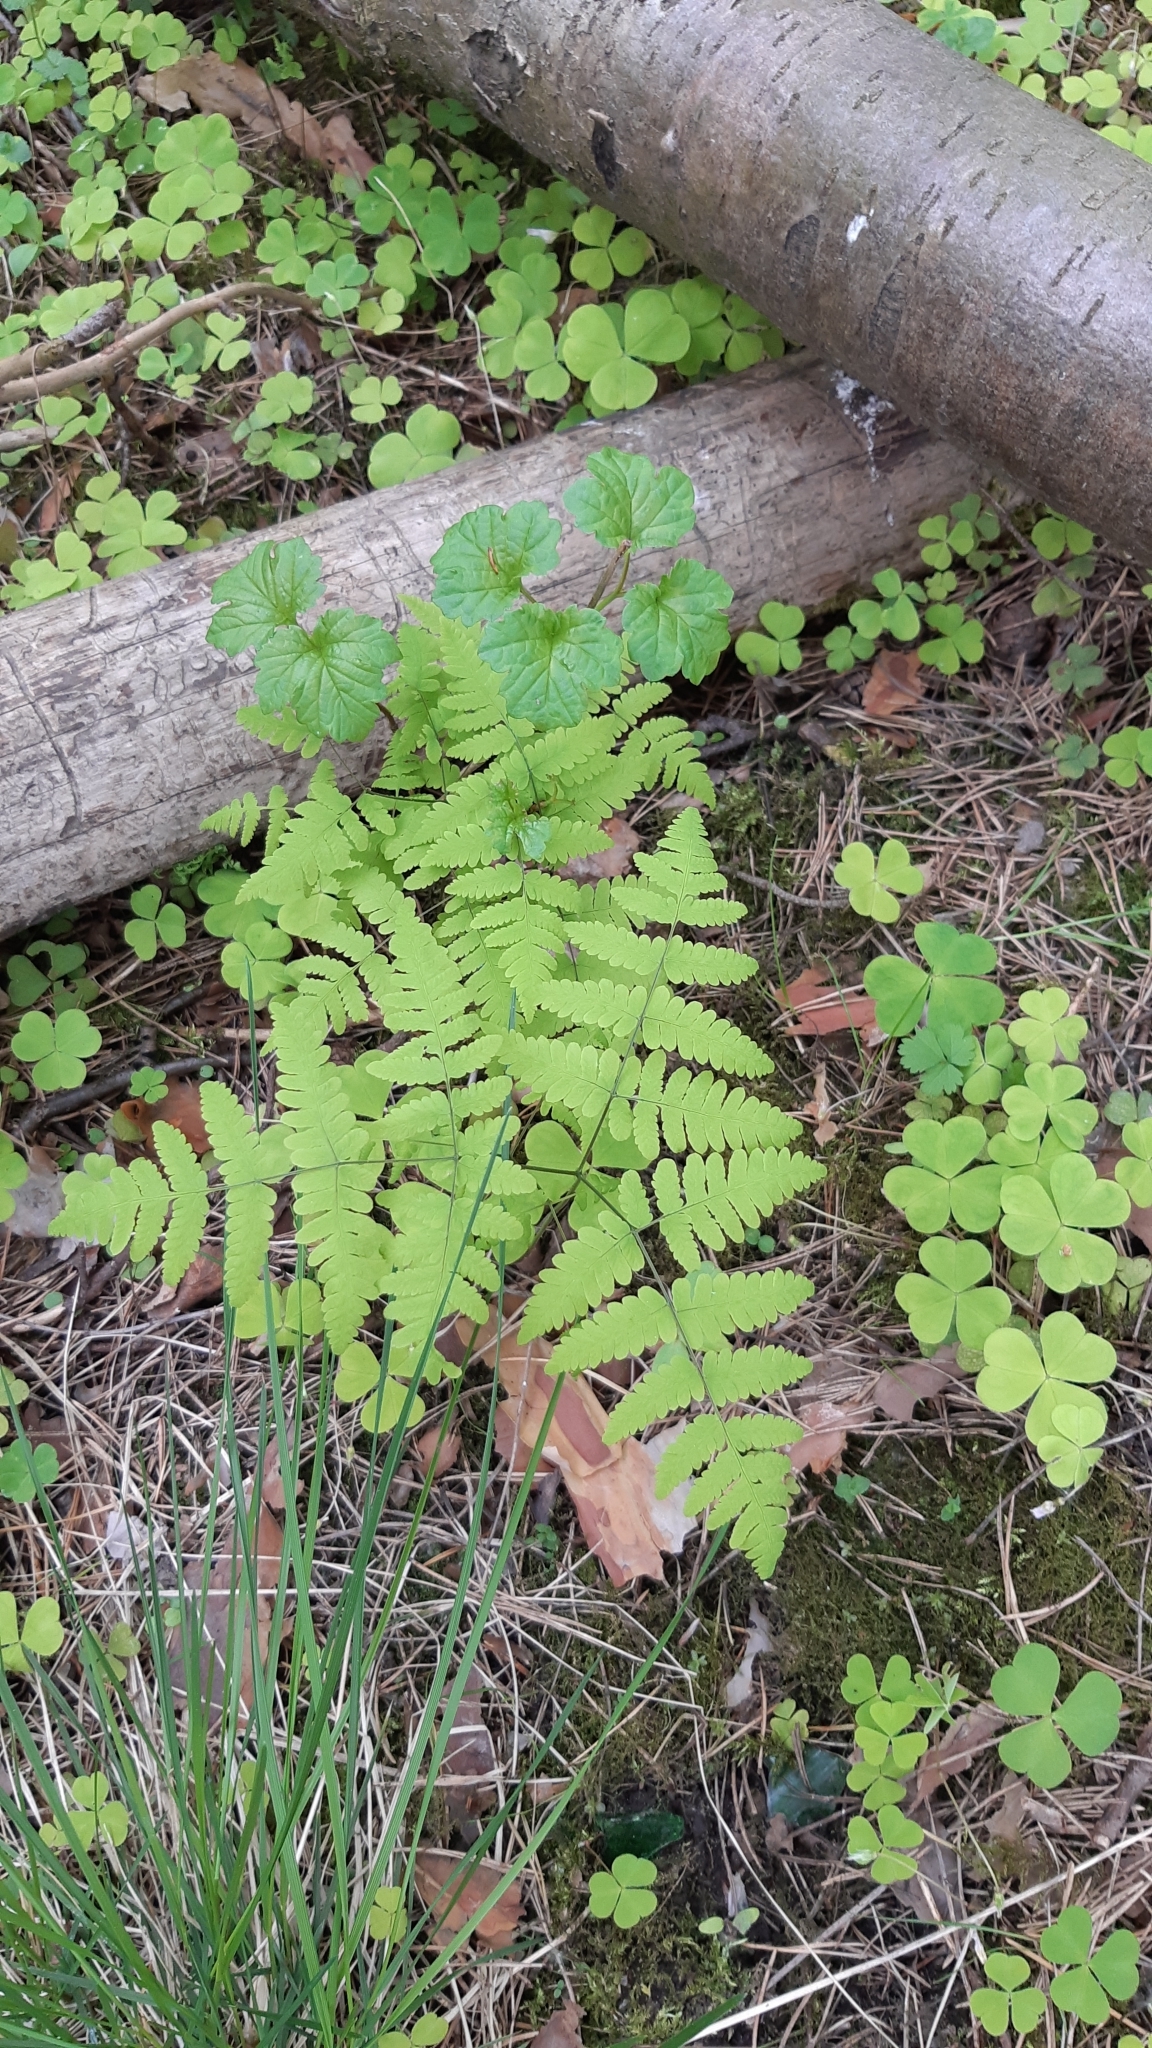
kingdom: Plantae
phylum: Tracheophyta
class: Polypodiopsida
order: Polypodiales
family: Cystopteridaceae
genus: Gymnocarpium
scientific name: Gymnocarpium dryopteris
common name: Oak fern
